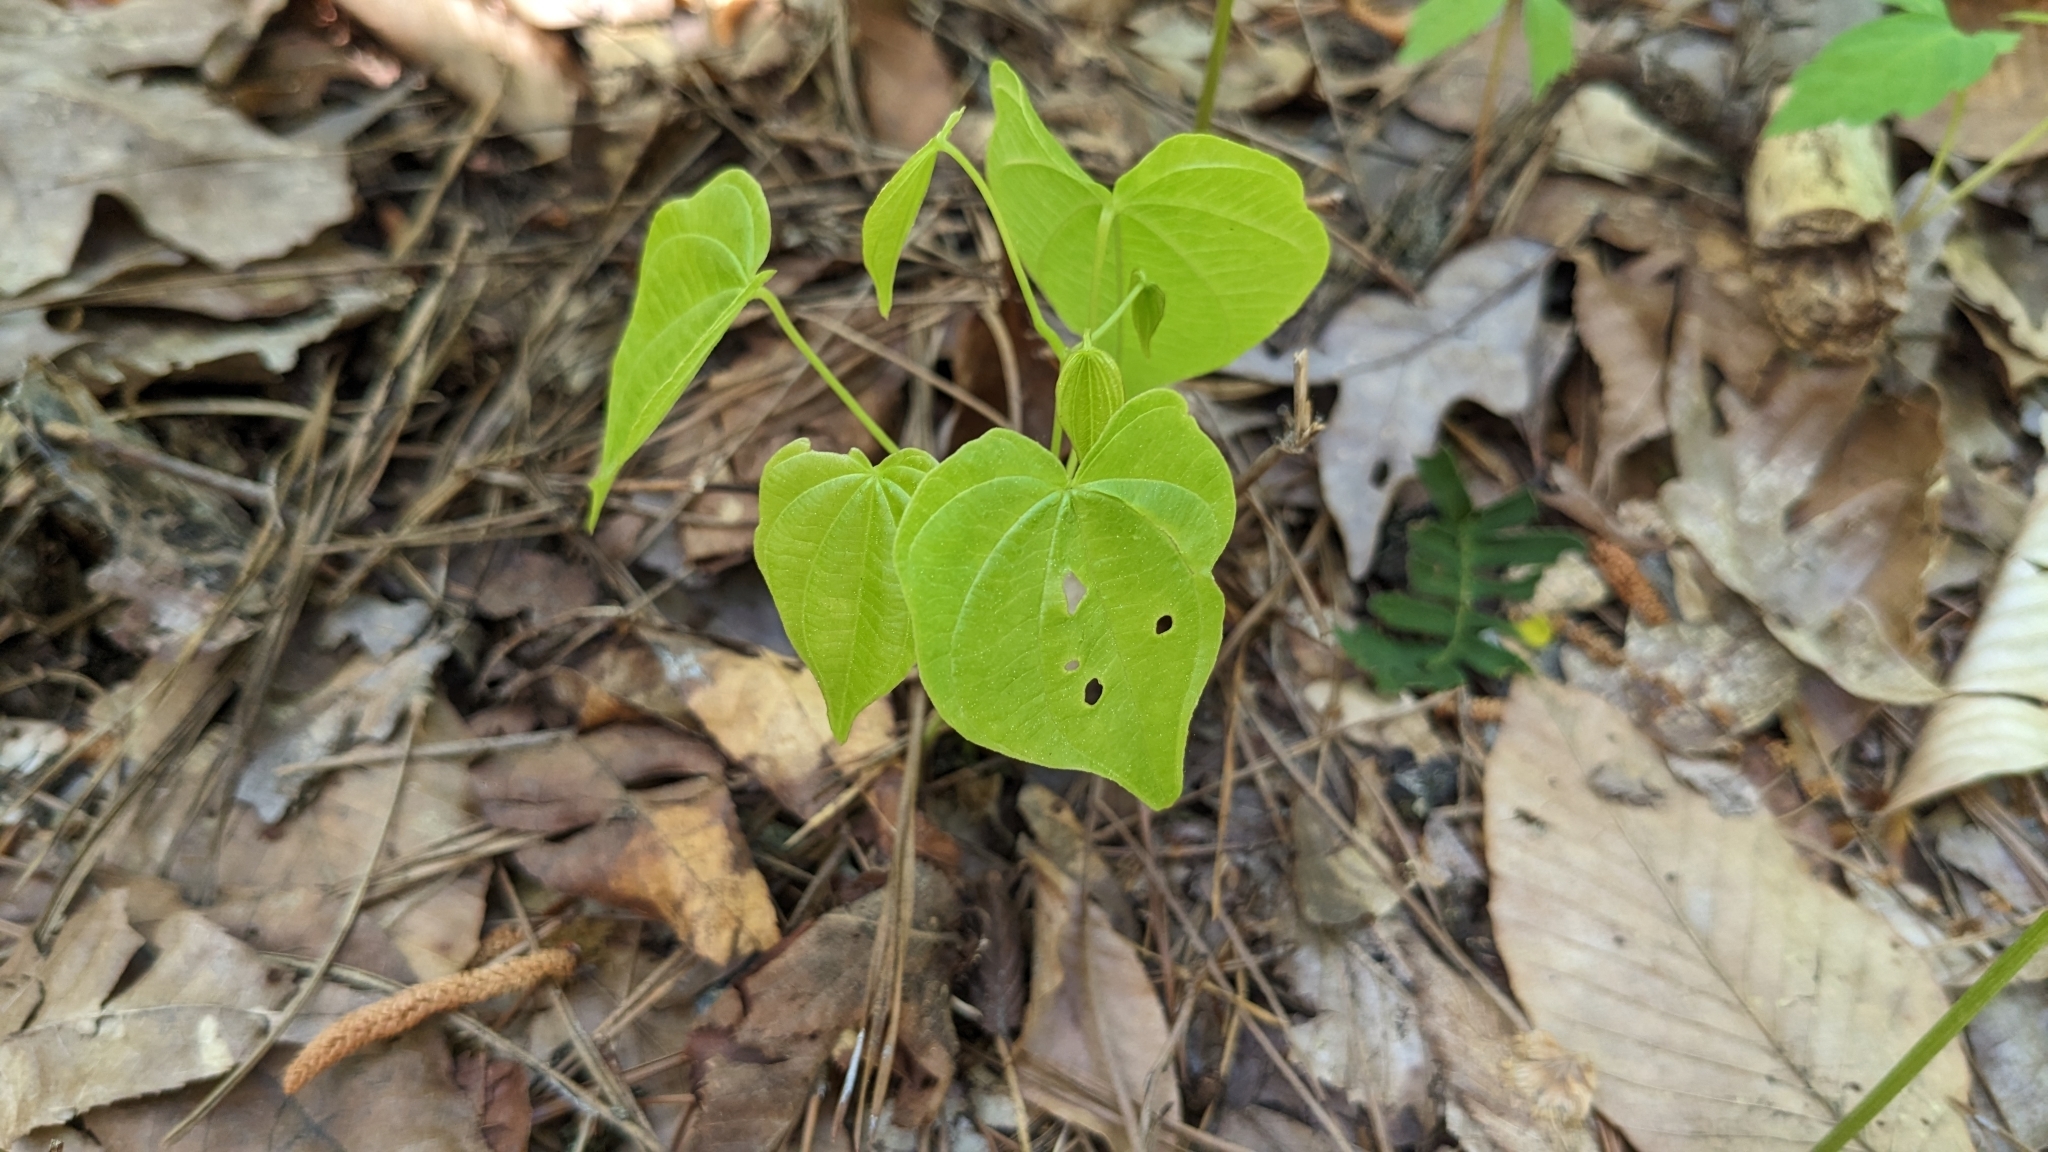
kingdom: Plantae
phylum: Tracheophyta
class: Liliopsida
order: Dioscoreales
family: Dioscoreaceae
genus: Dioscorea
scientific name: Dioscorea villosa
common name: Wild yam
